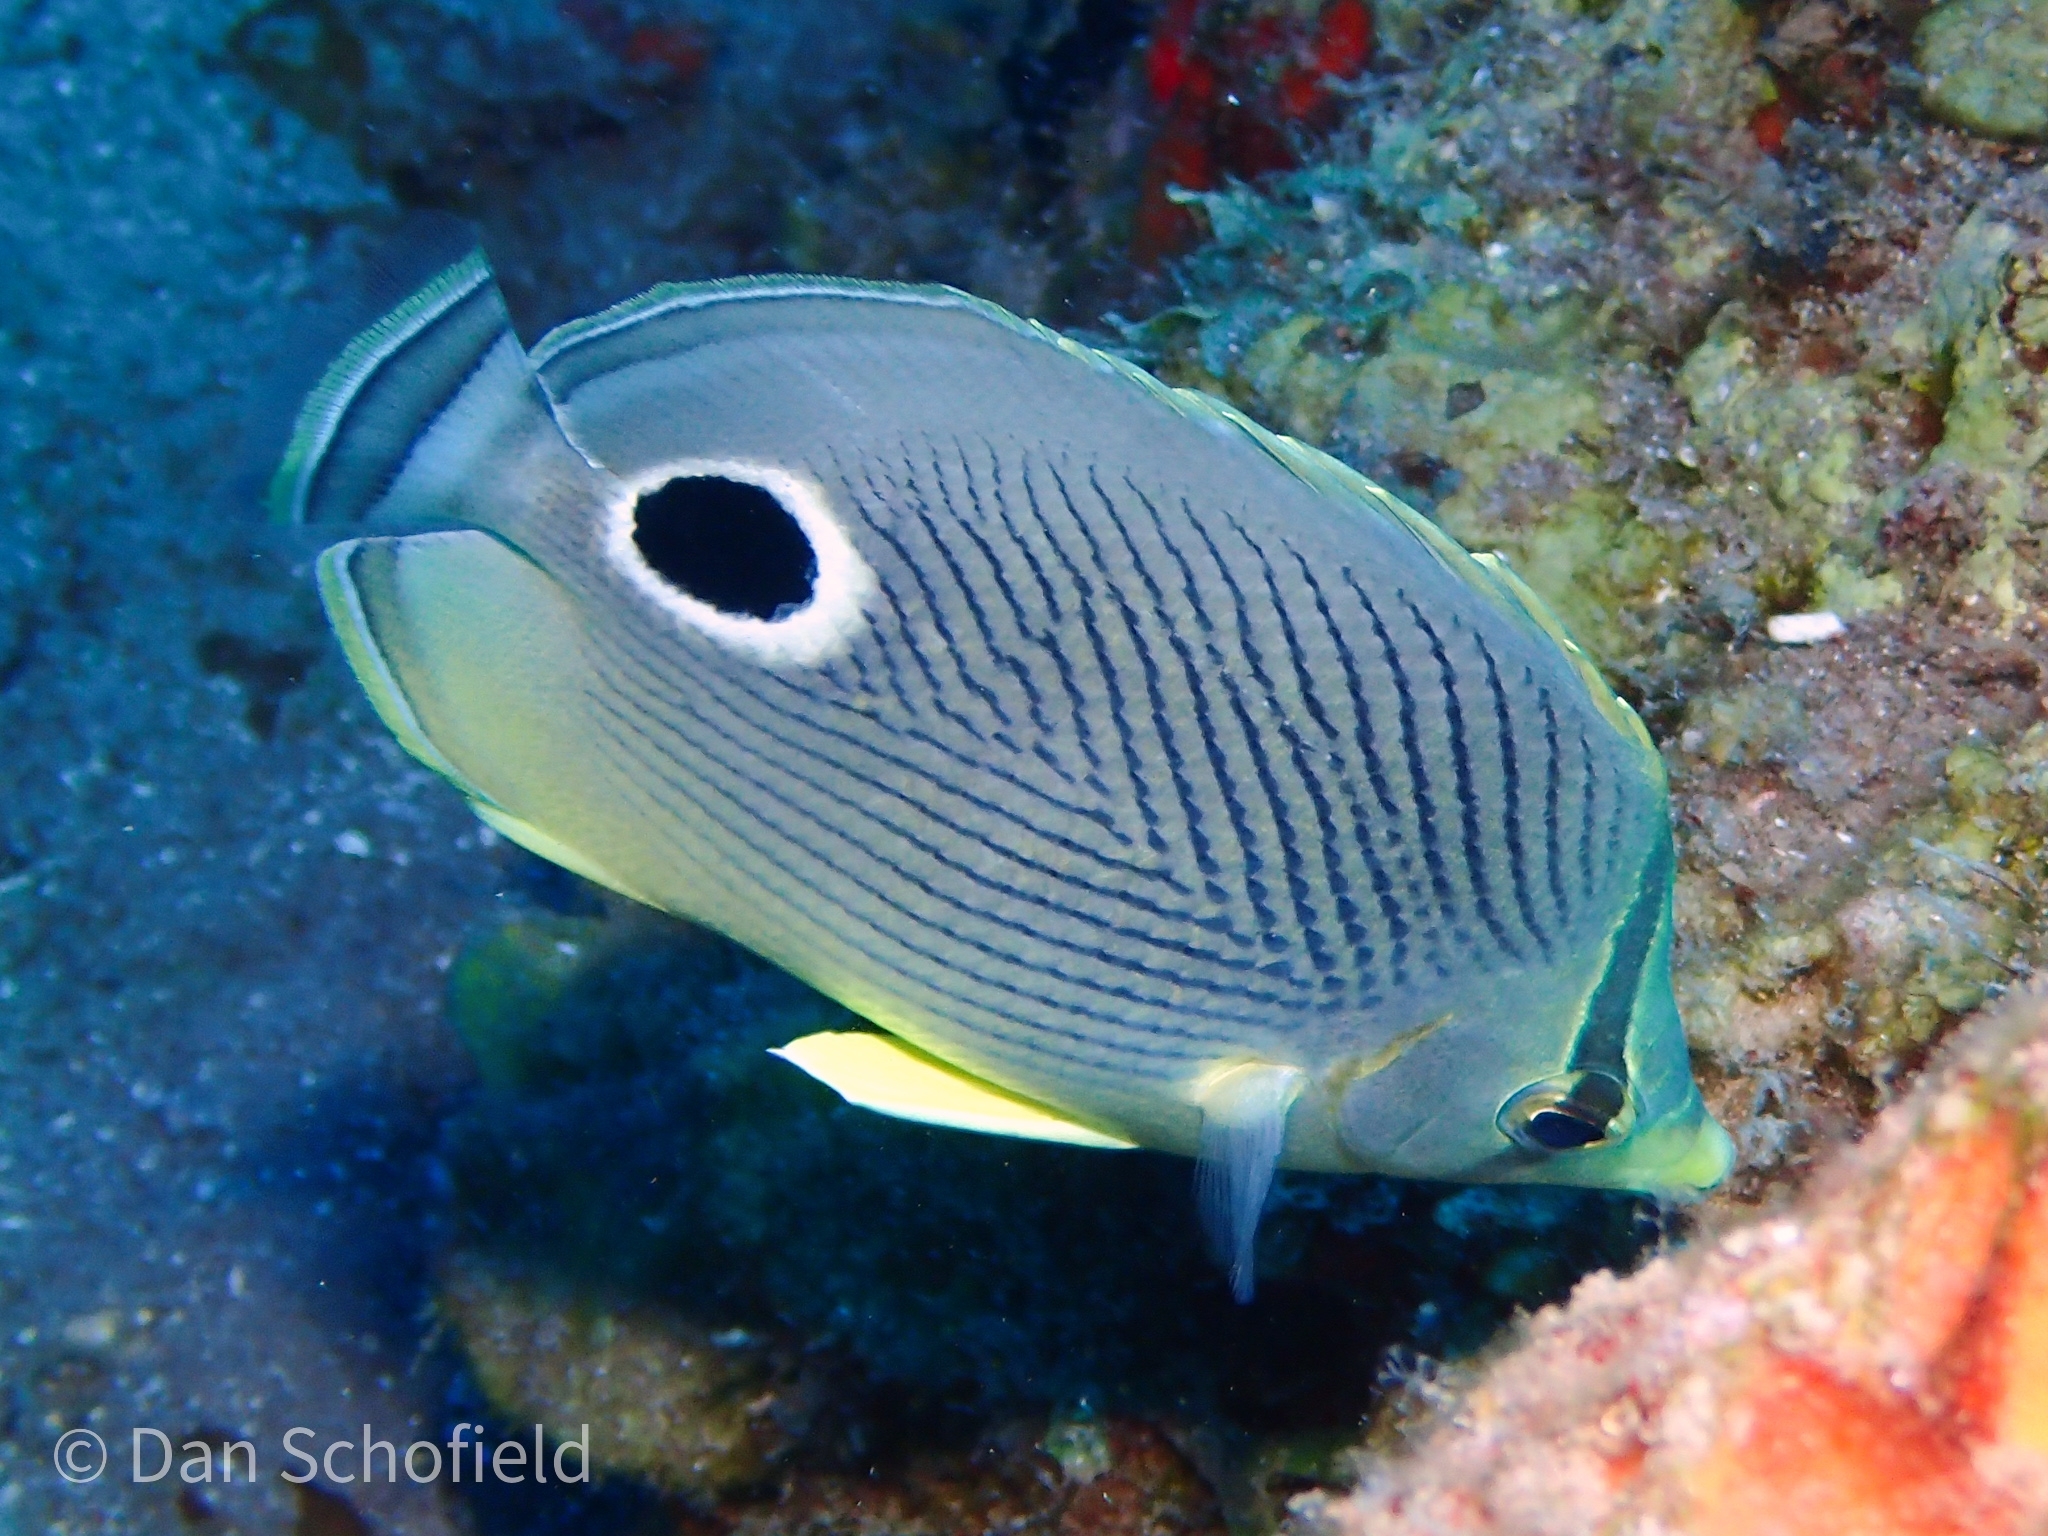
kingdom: Animalia
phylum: Chordata
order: Perciformes
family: Chaetodontidae
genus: Chaetodon
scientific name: Chaetodon capistratus
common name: Kete
